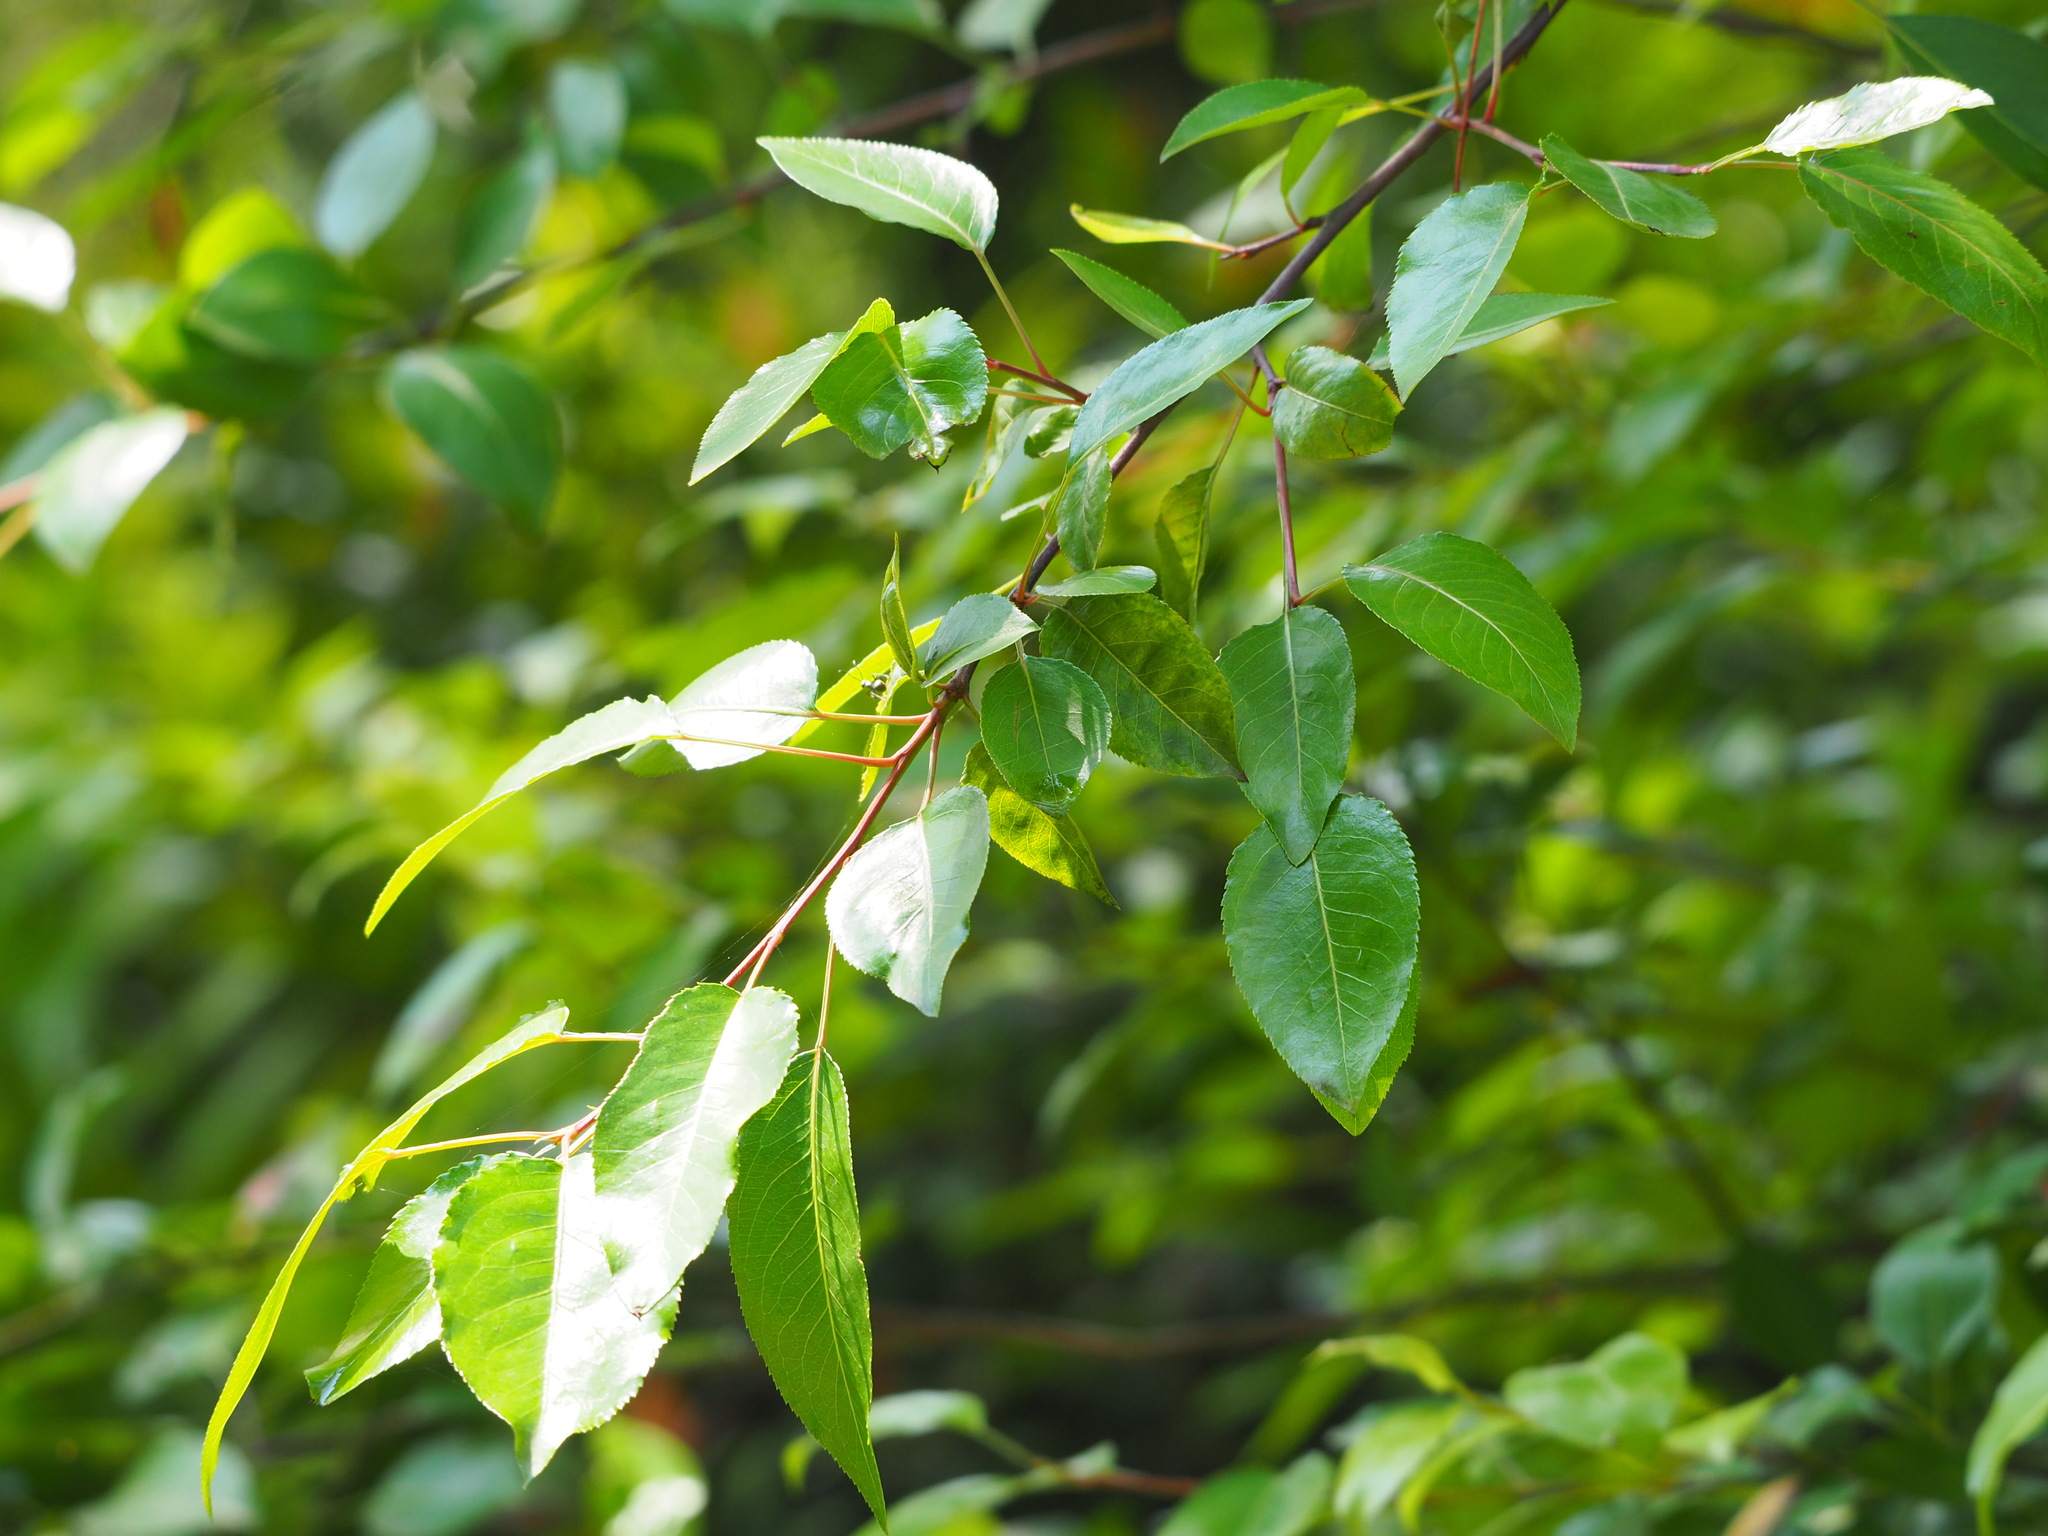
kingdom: Plantae
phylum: Tracheophyta
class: Magnoliopsida
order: Rosales
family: Rosaceae
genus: Pyrus
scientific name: Pyrus calleryana
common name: Callery pear
